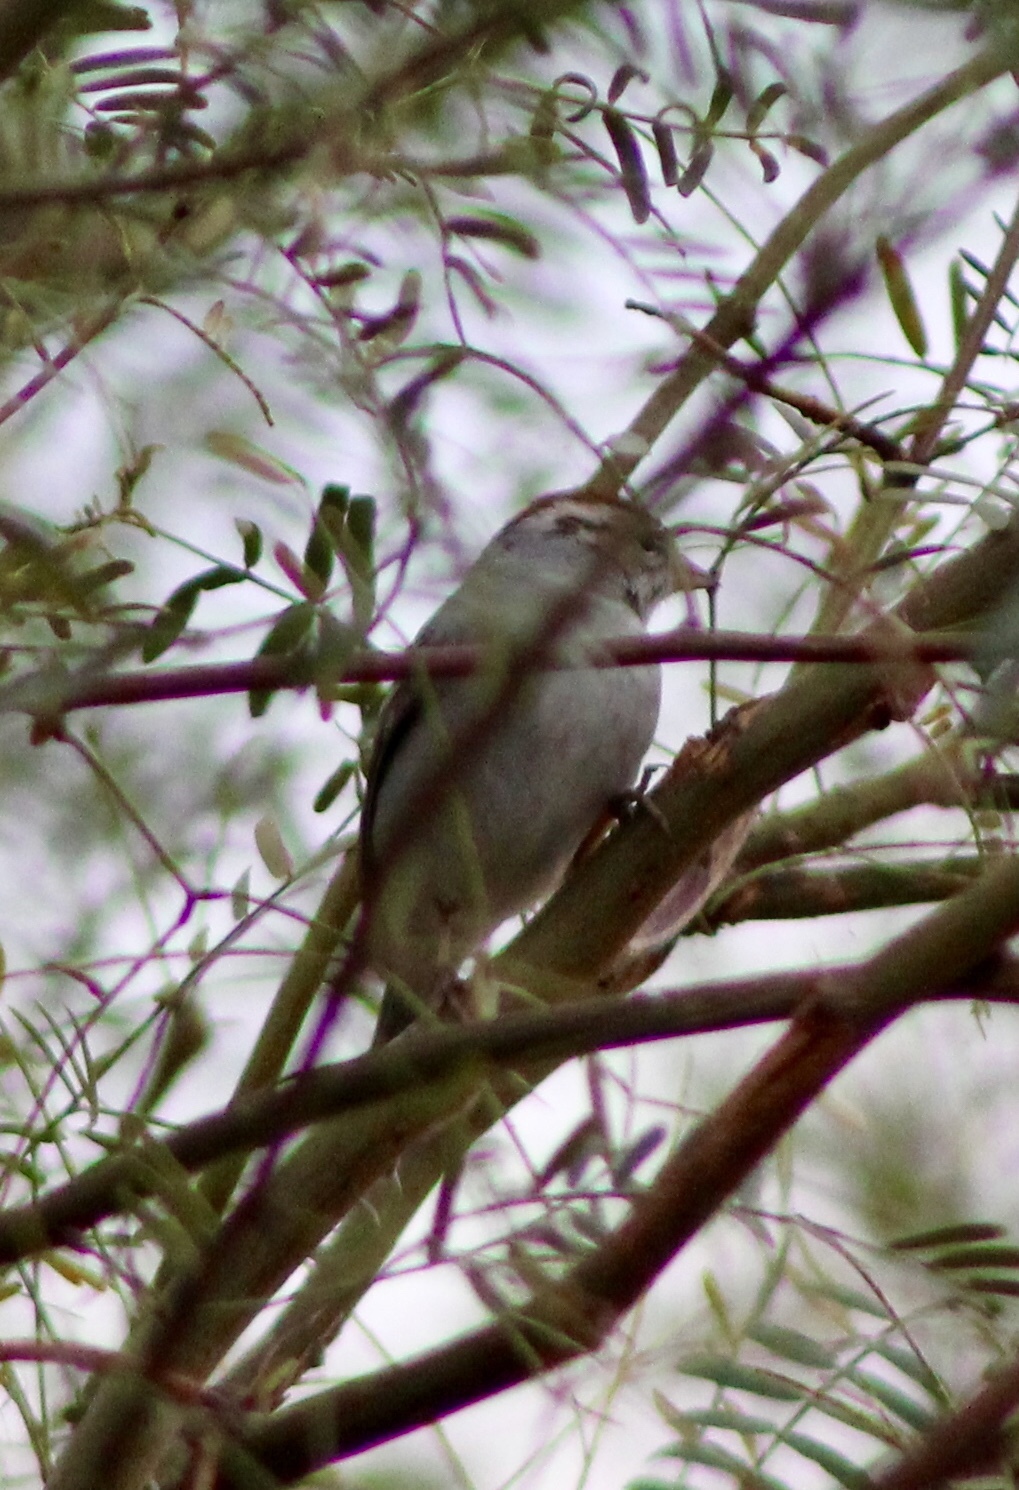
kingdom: Animalia
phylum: Chordata
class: Aves
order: Passeriformes
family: Passerellidae
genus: Spizella
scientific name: Spizella passerina
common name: Chipping sparrow
